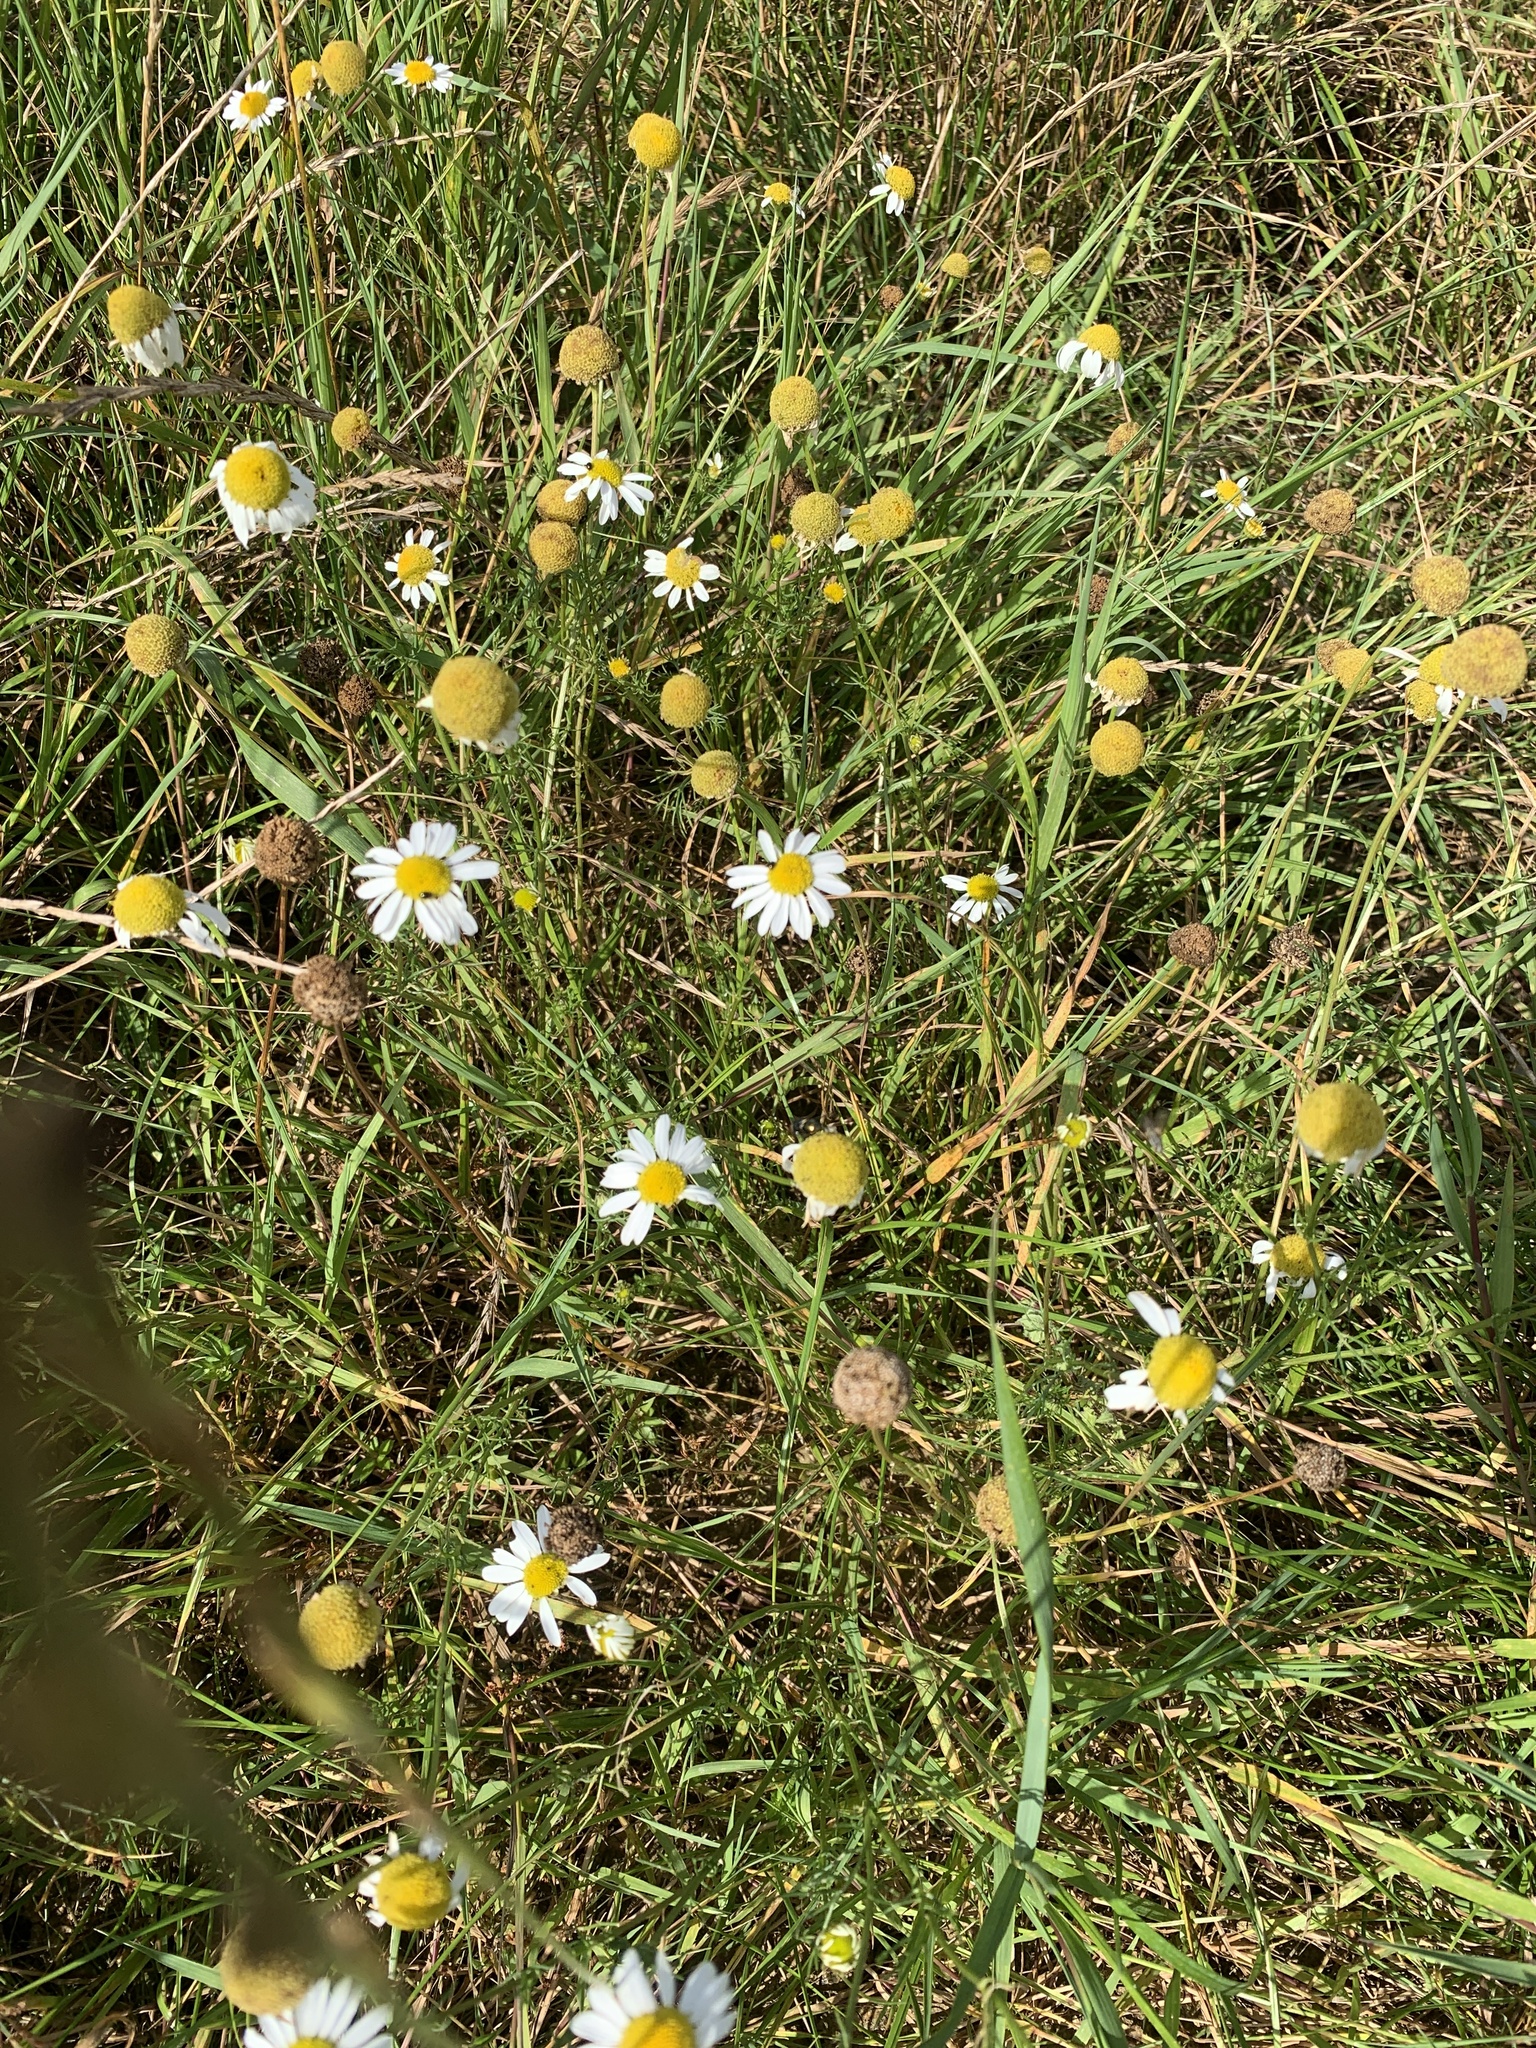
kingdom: Plantae
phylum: Tracheophyta
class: Magnoliopsida
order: Asterales
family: Asteraceae
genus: Matricaria
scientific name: Matricaria chamomilla
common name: Scented mayweed
